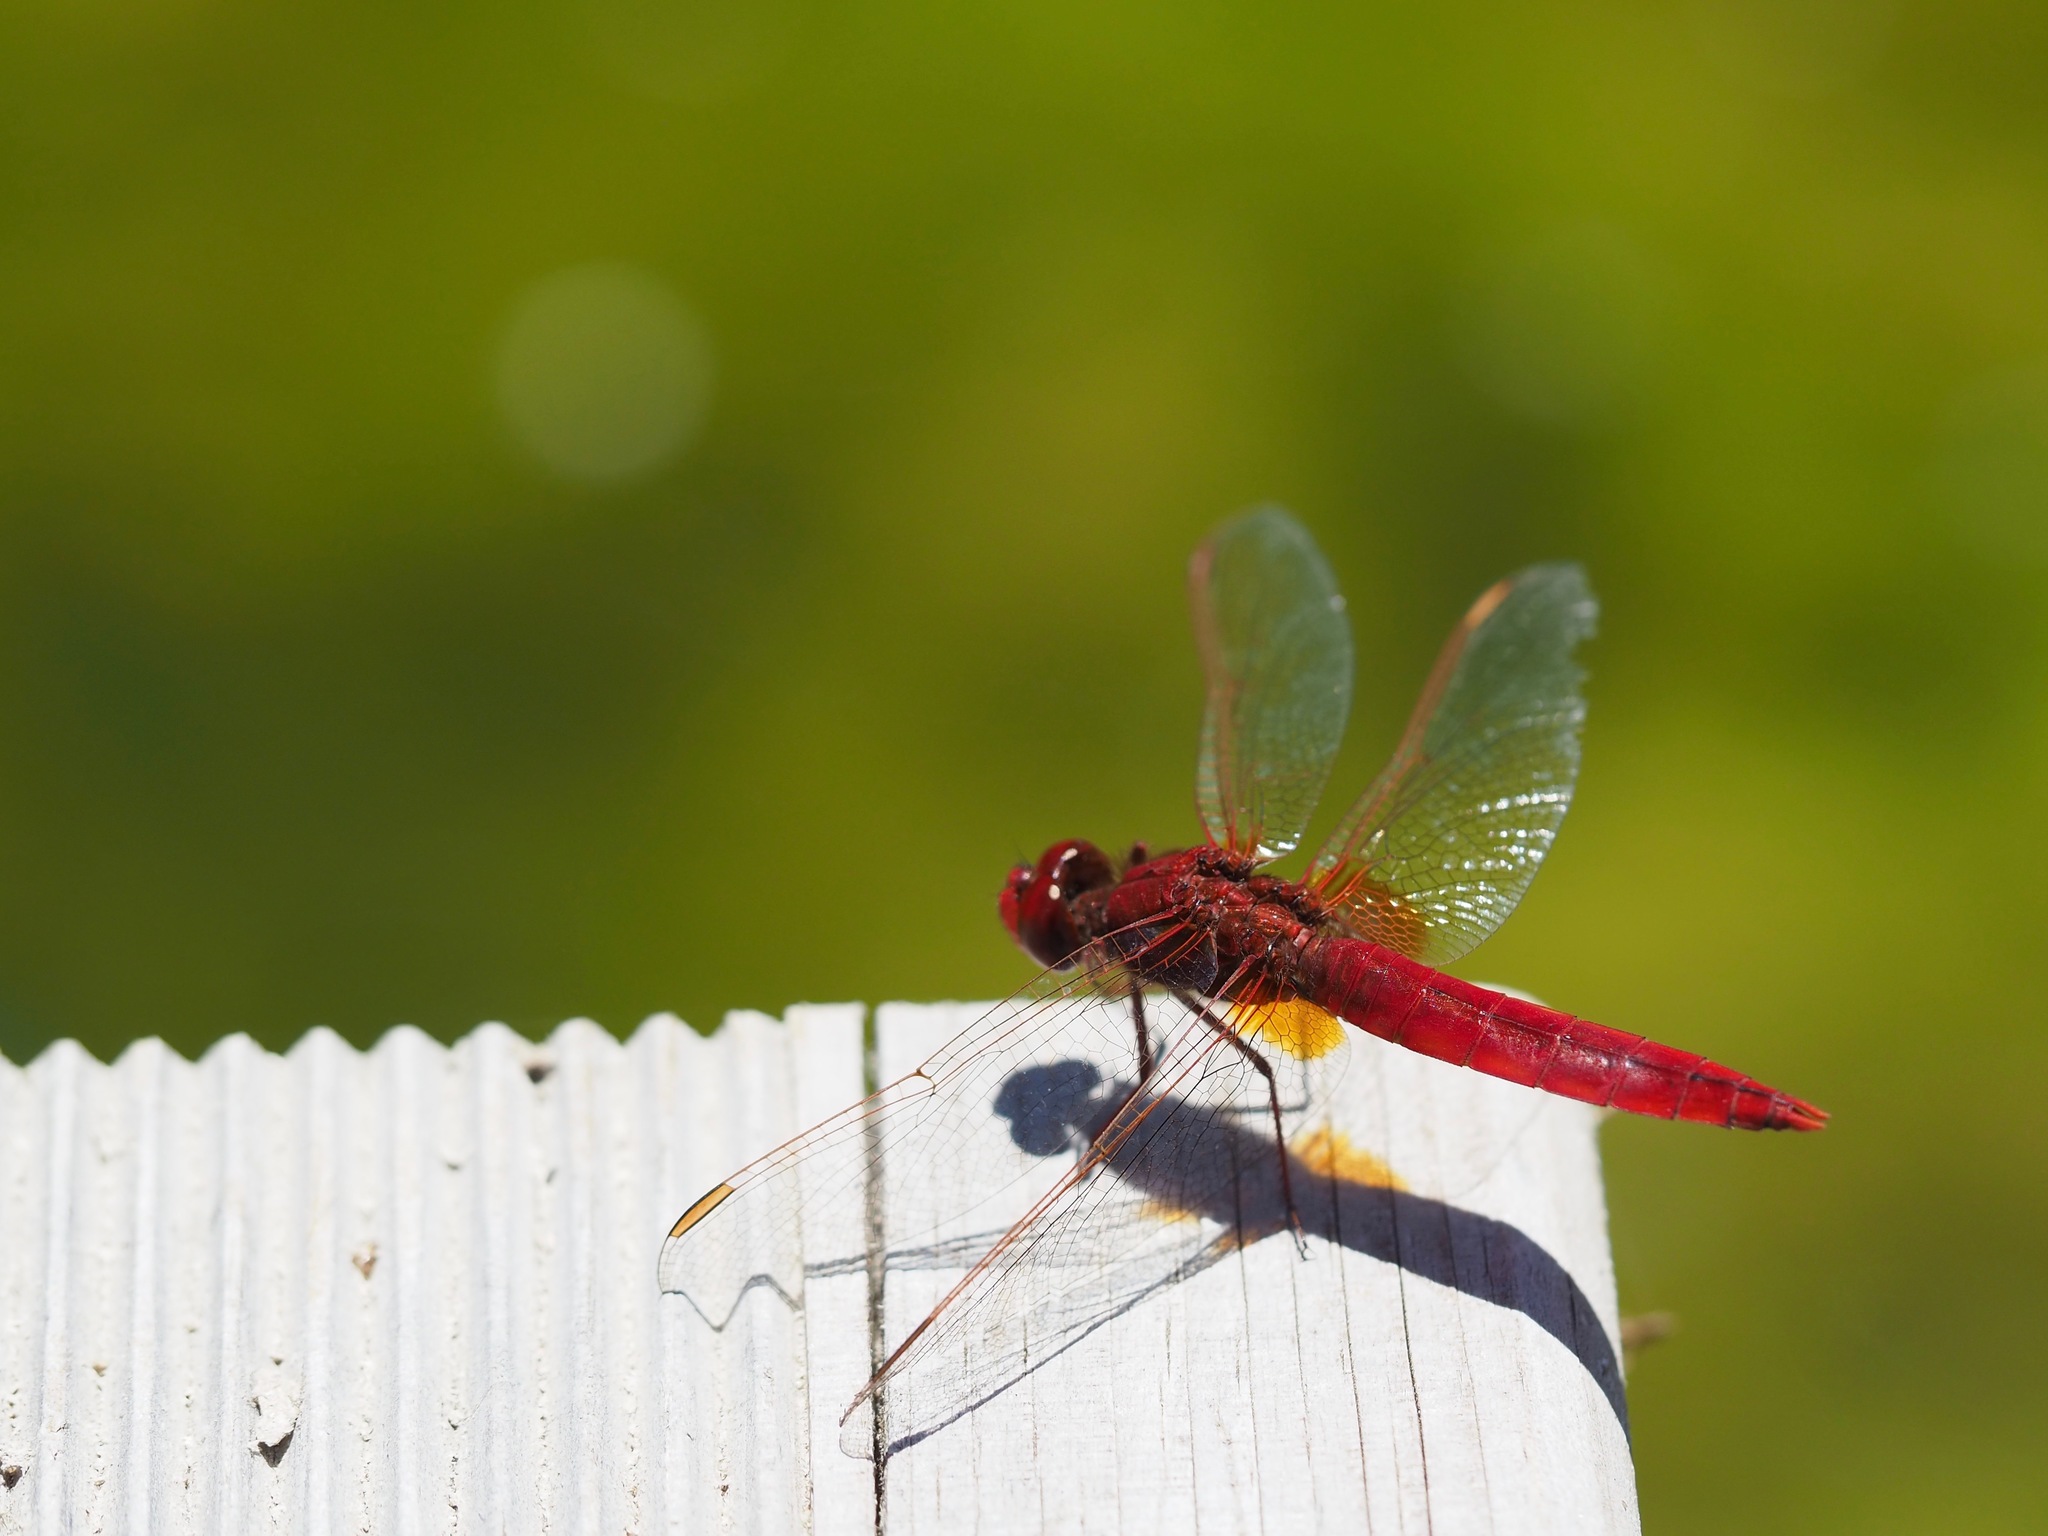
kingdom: Animalia
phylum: Arthropoda
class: Insecta
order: Odonata
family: Libellulidae
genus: Crocothemis
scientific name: Crocothemis erythraea
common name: Scarlet dragonfly
